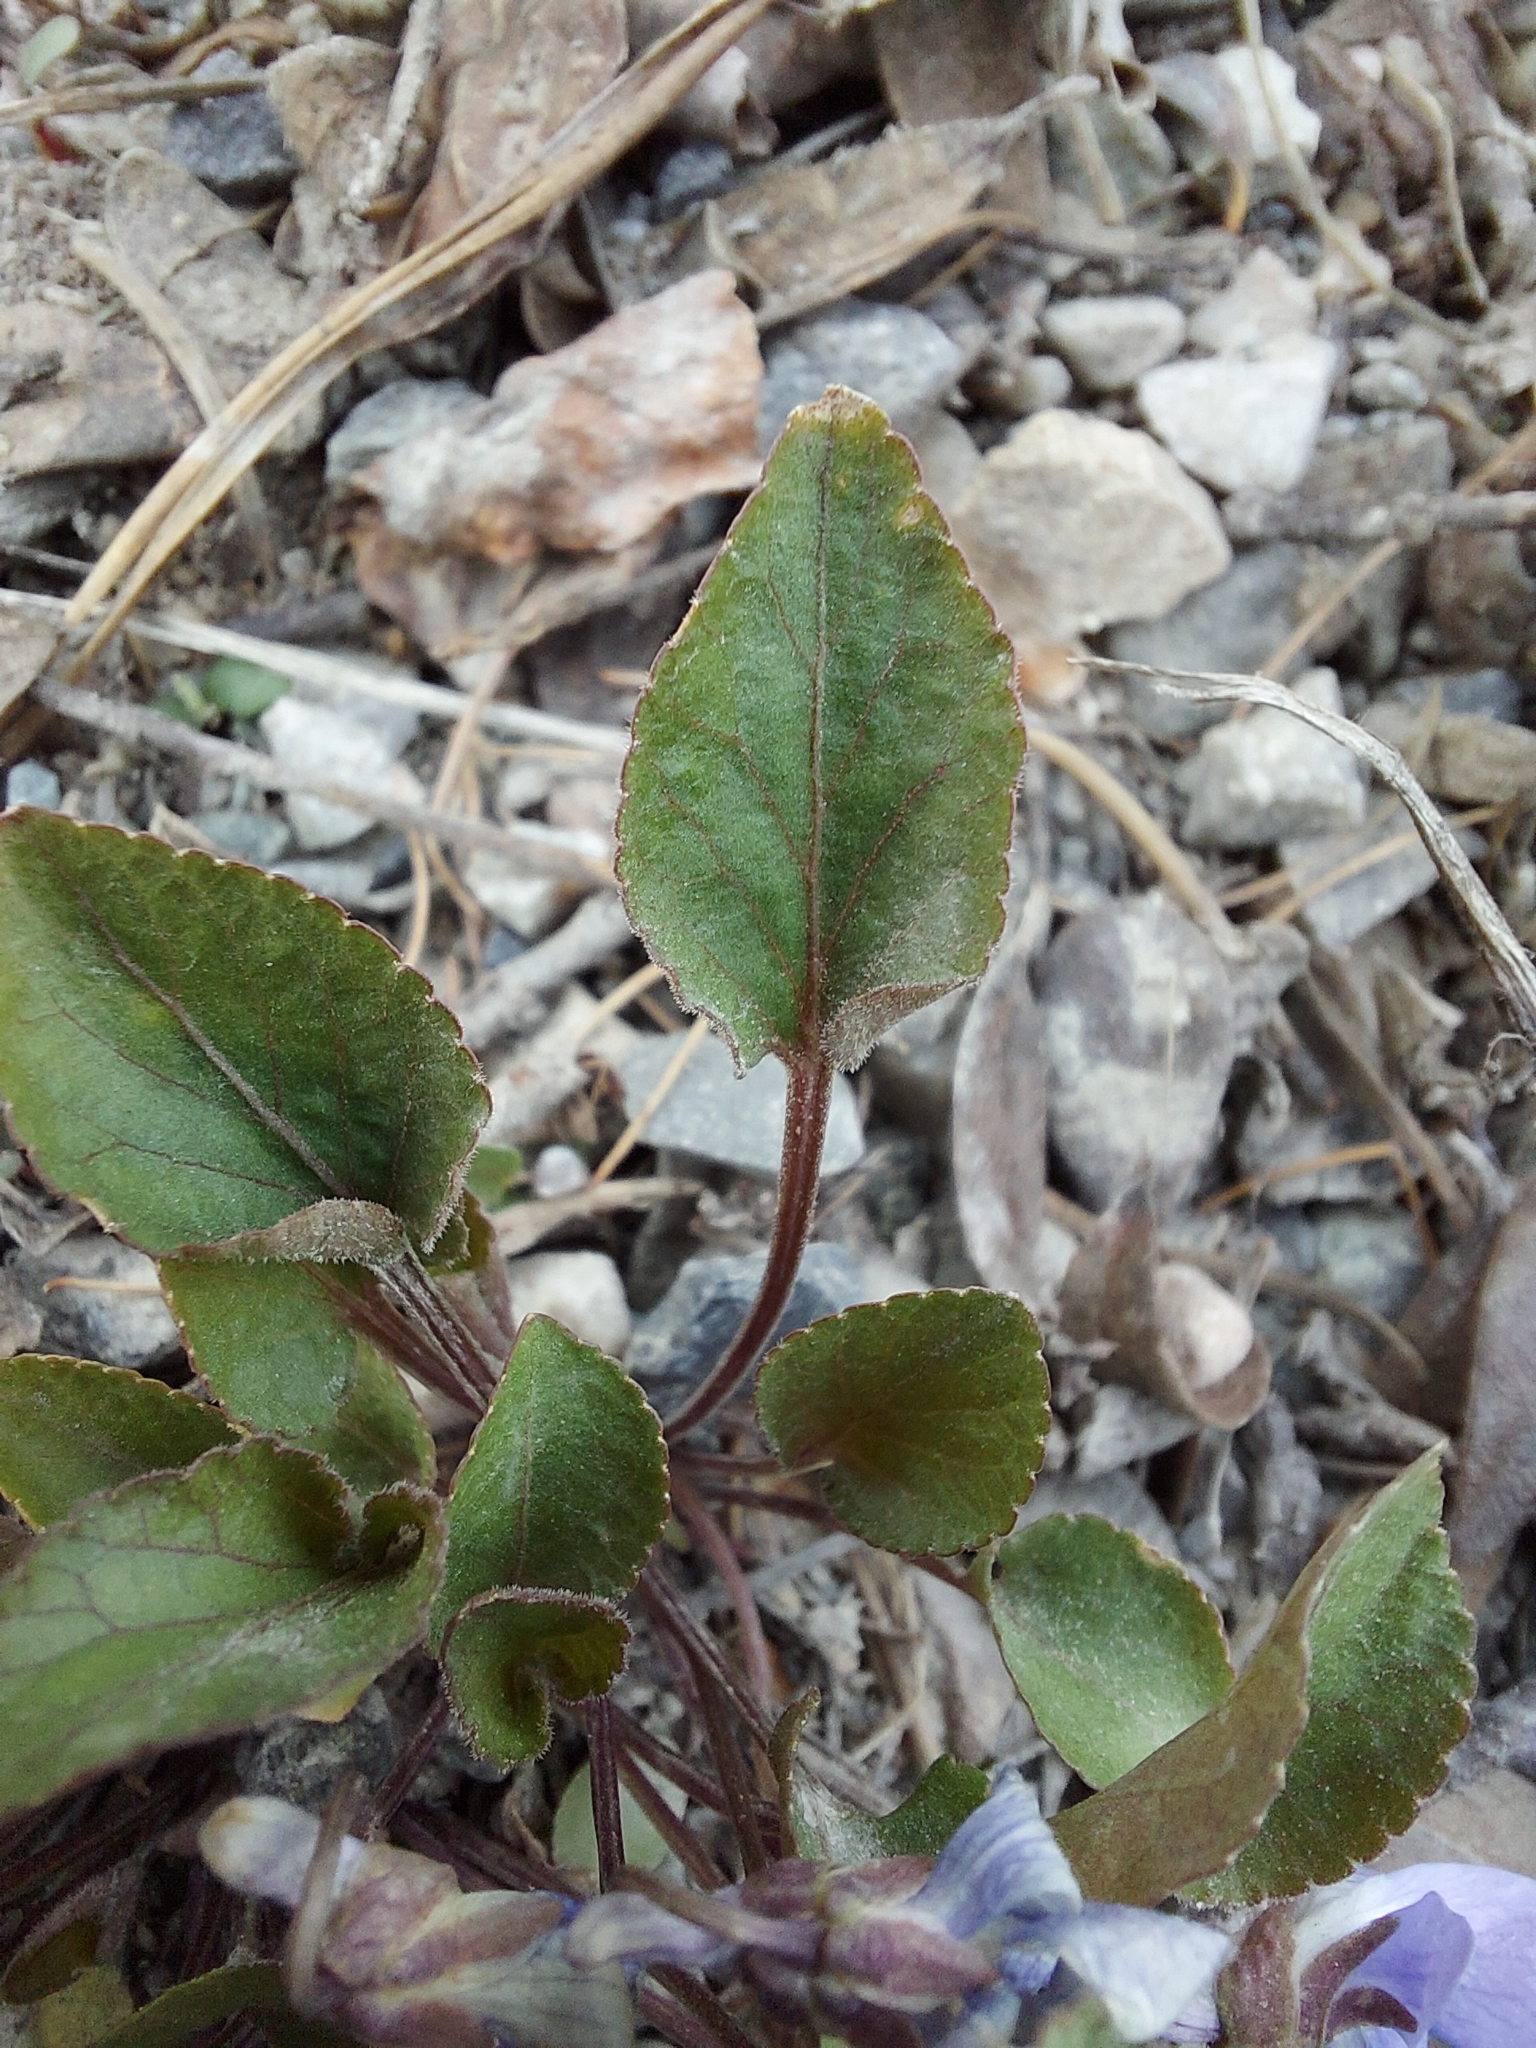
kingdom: Plantae
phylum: Tracheophyta
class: Magnoliopsida
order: Malpighiales
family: Violaceae
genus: Viola
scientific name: Viola adunca
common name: Sand violet
